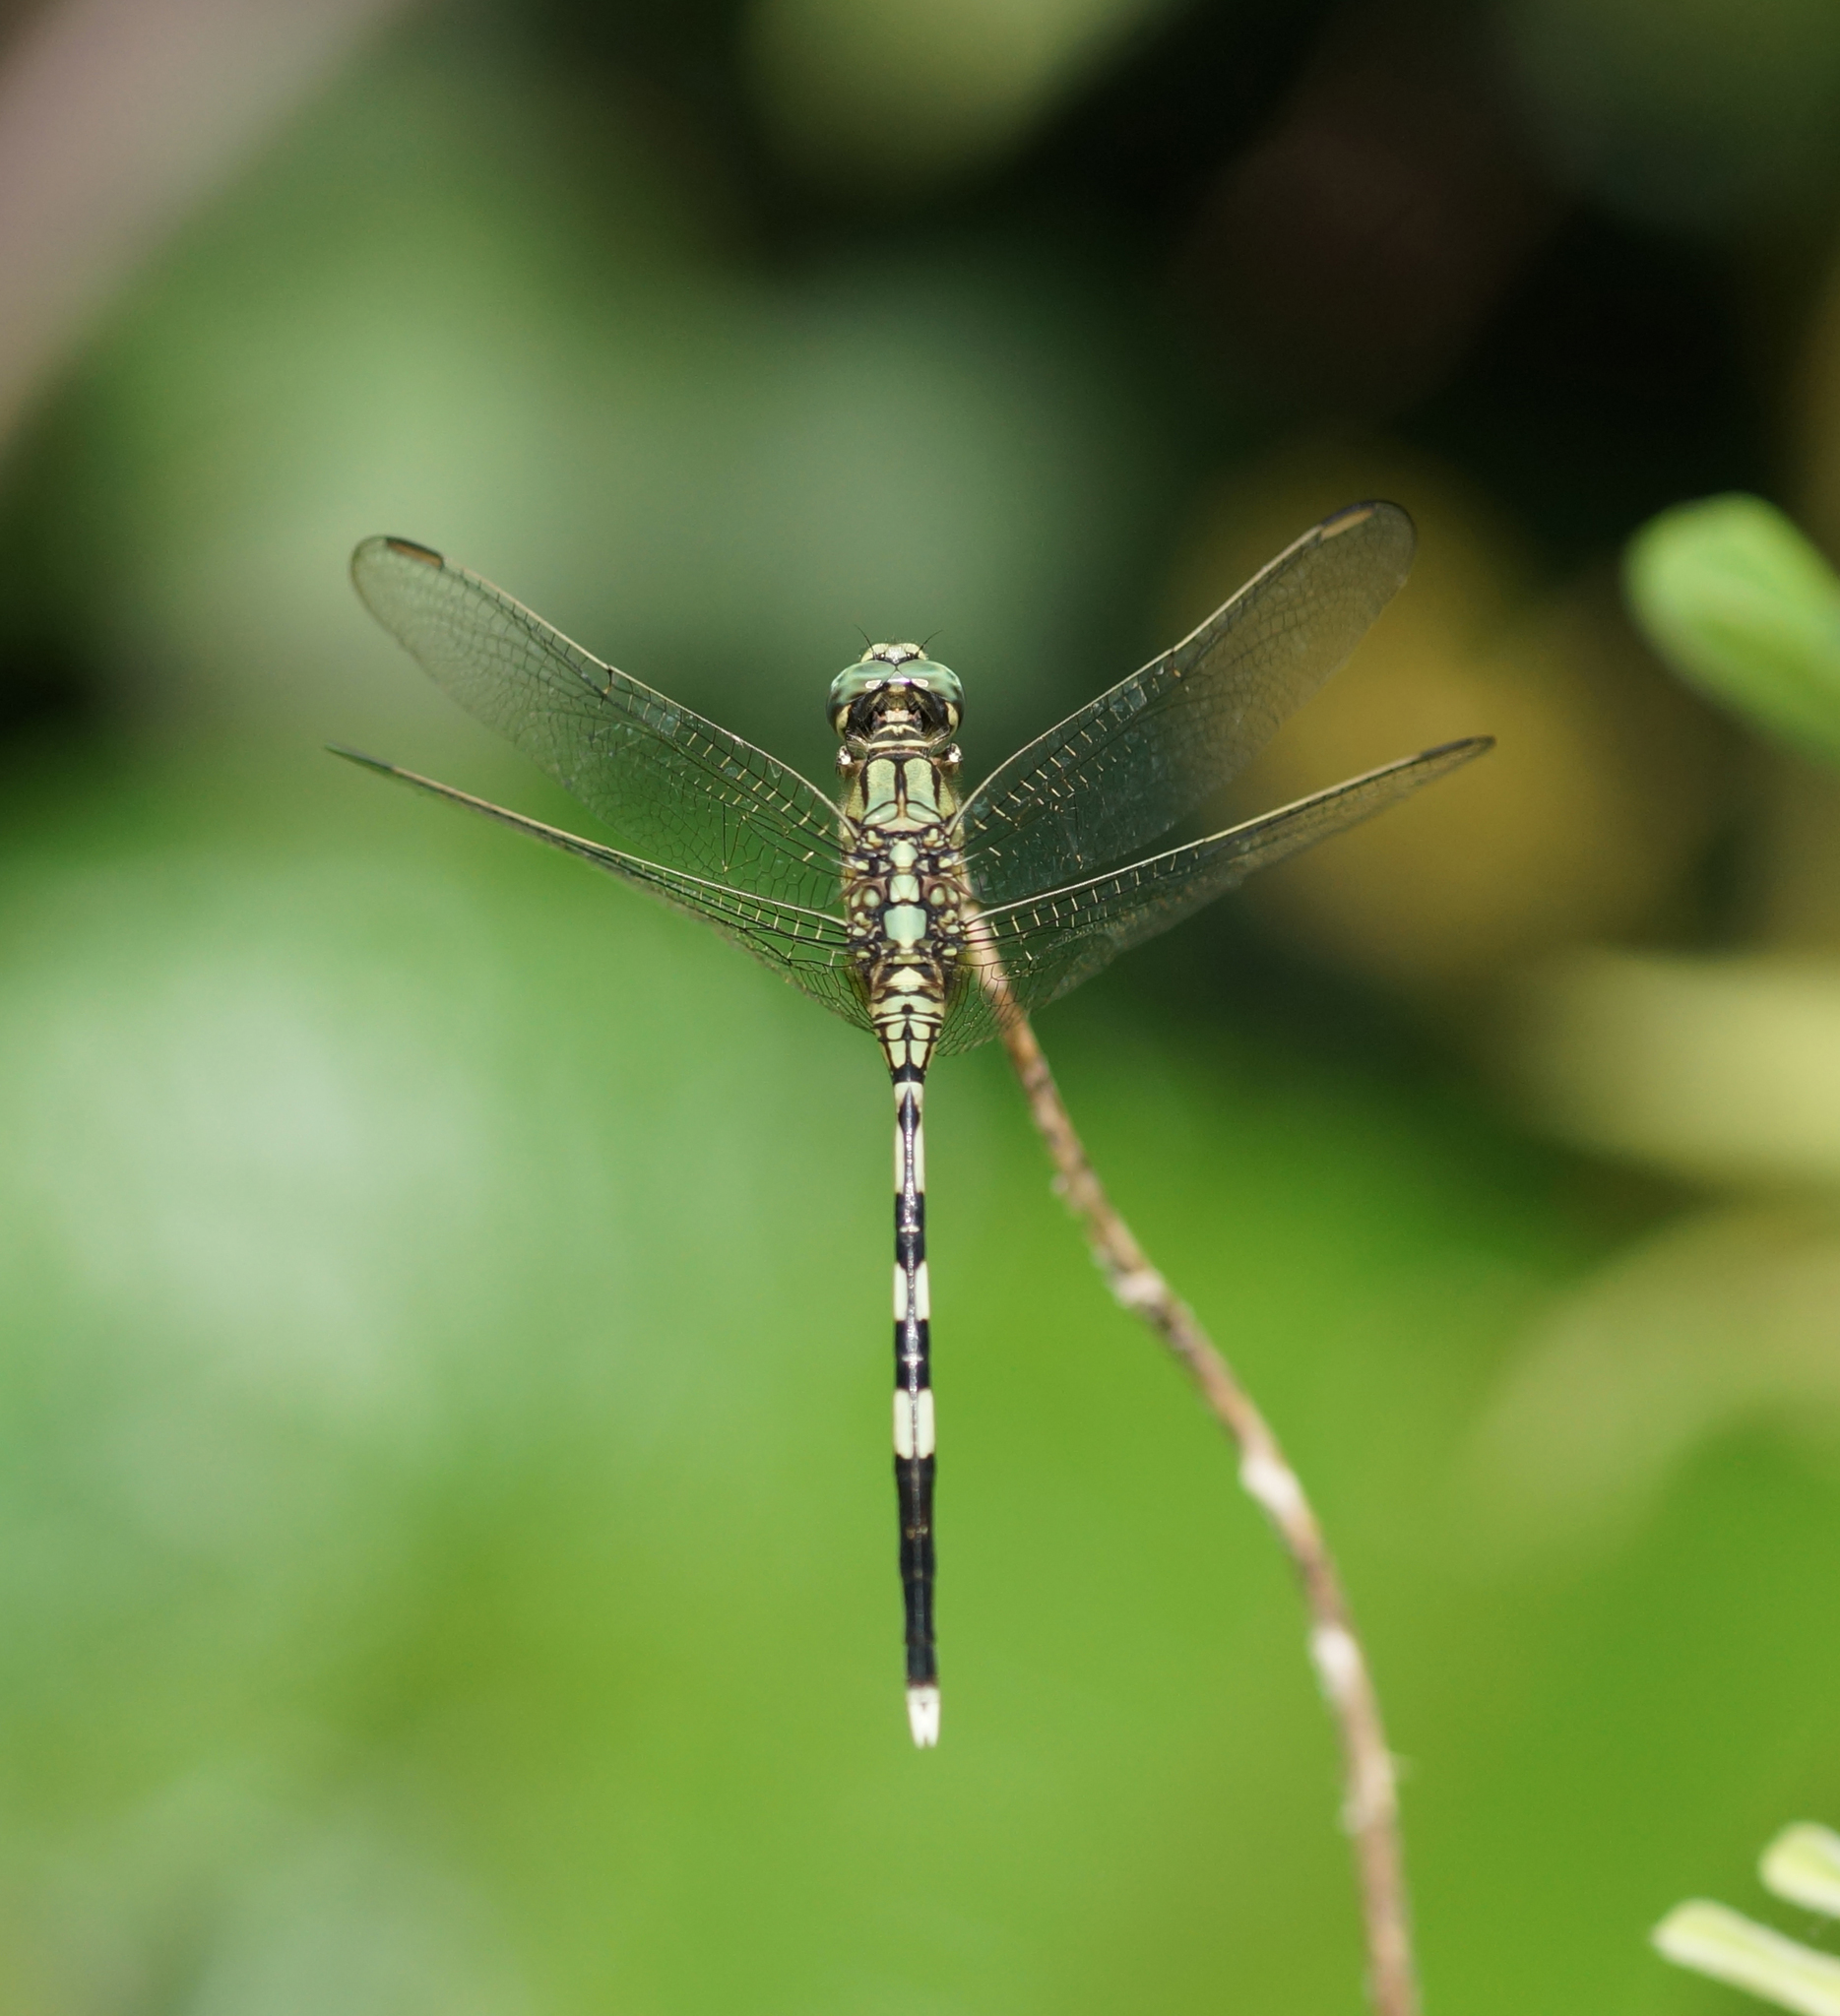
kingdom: Animalia
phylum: Arthropoda
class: Insecta
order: Odonata
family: Libellulidae
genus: Orthetrum
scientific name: Orthetrum sabina
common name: Slender skimmer
